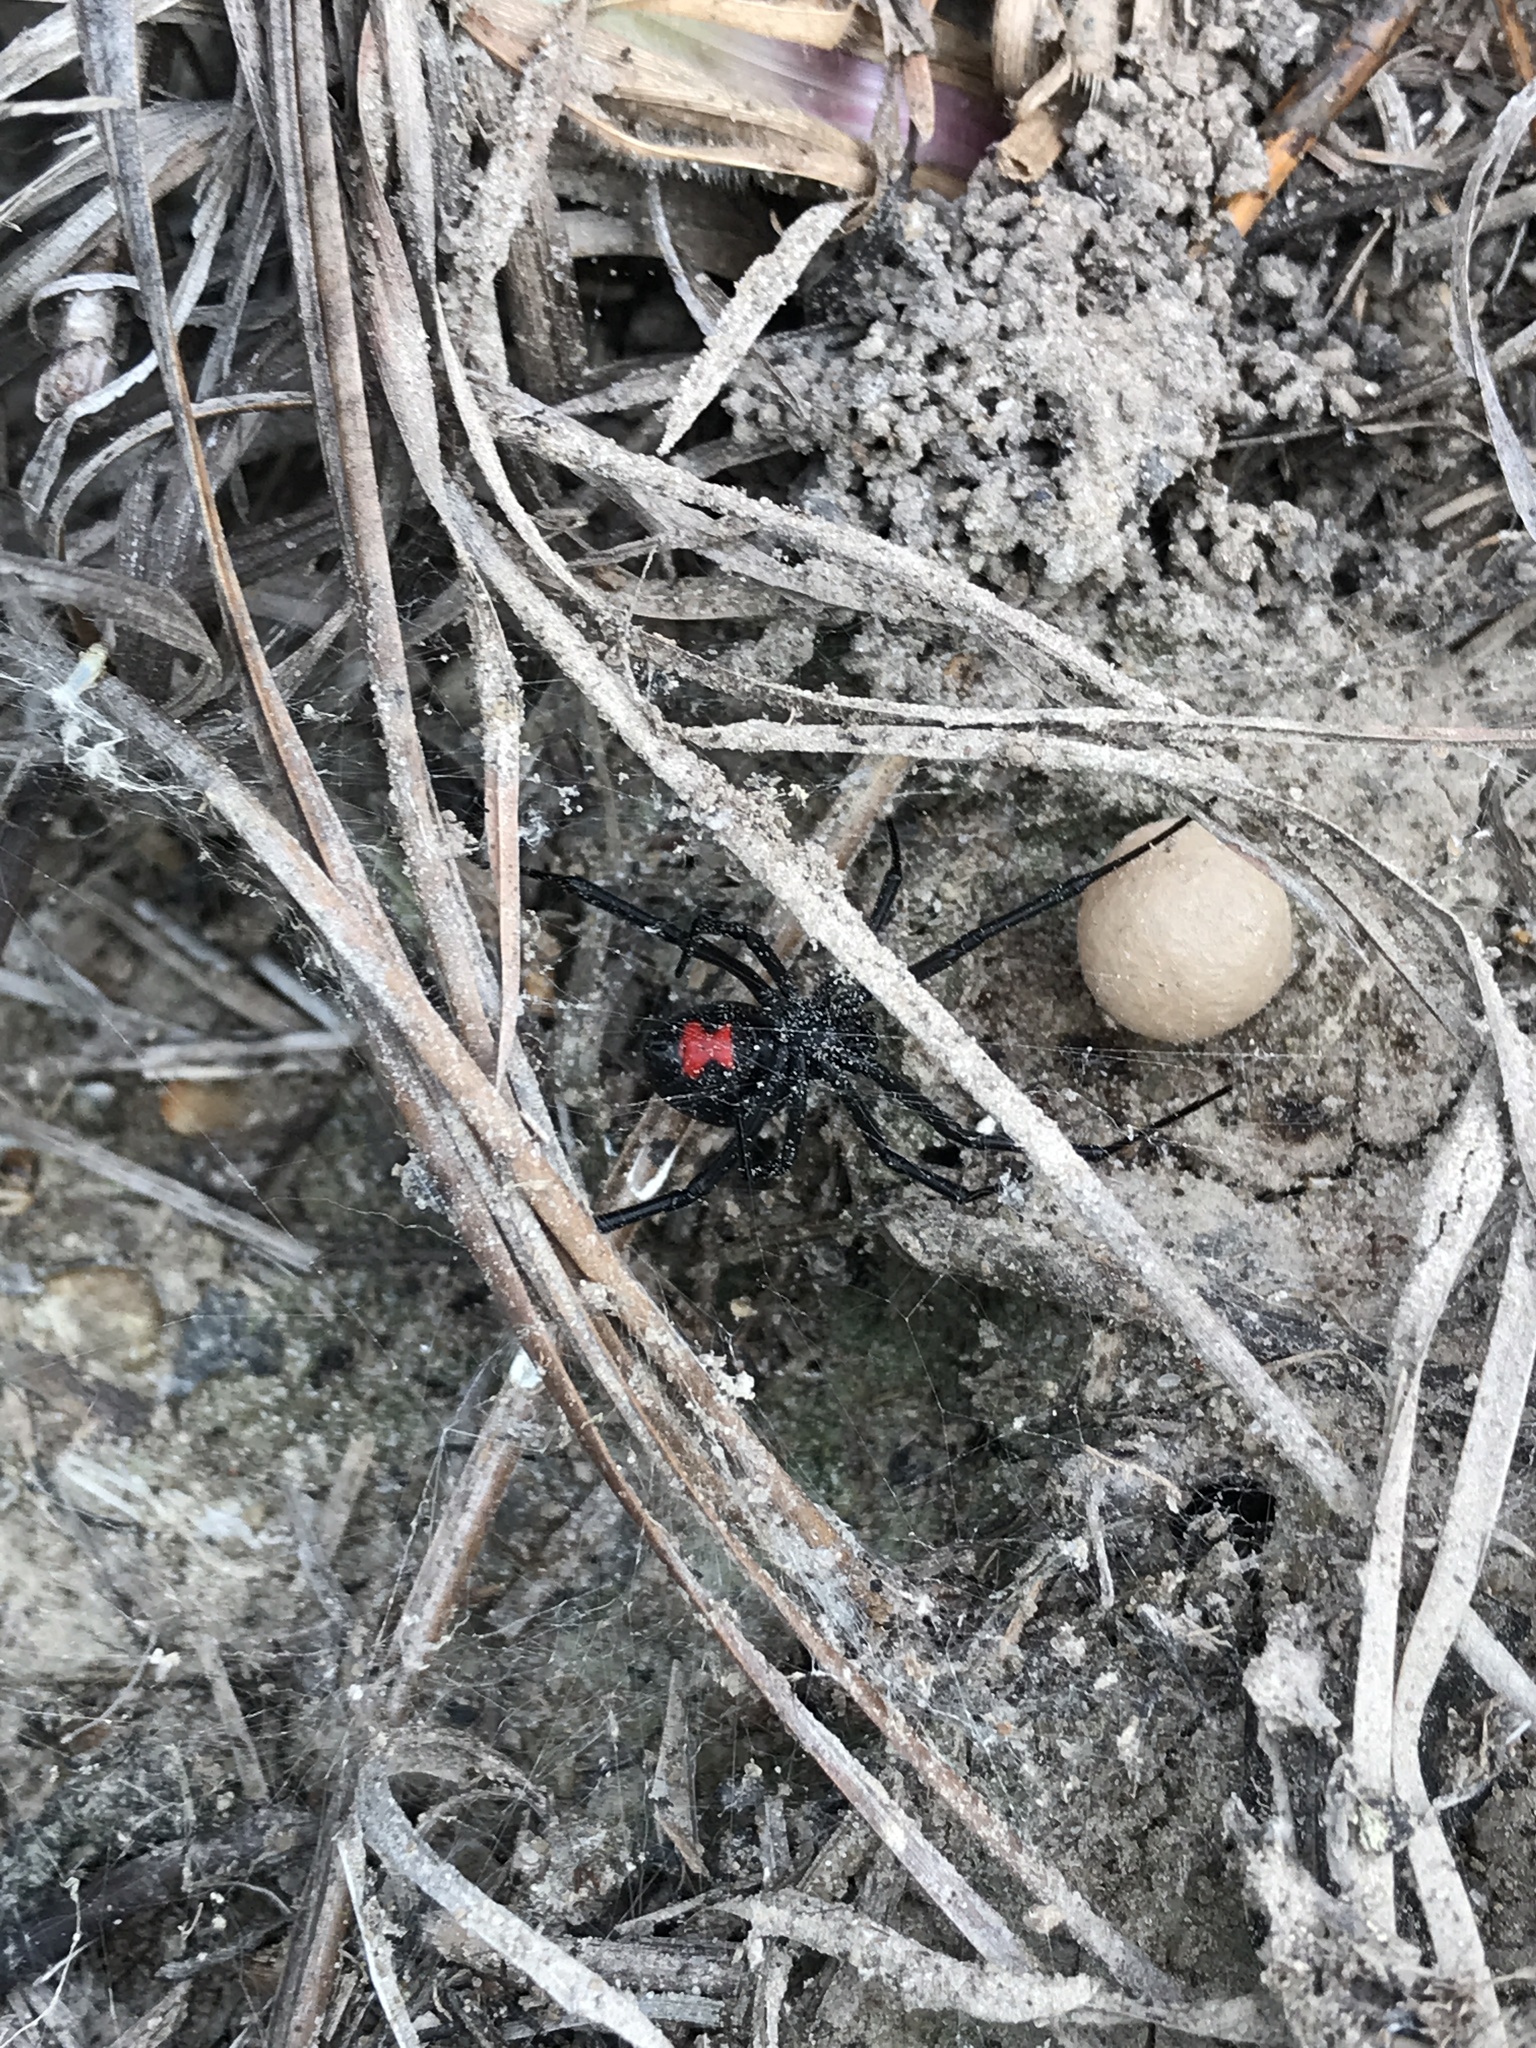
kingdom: Animalia
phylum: Arthropoda
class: Arachnida
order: Araneae
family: Theridiidae
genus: Latrodectus
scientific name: Latrodectus mactans
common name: Cobweb spiders
